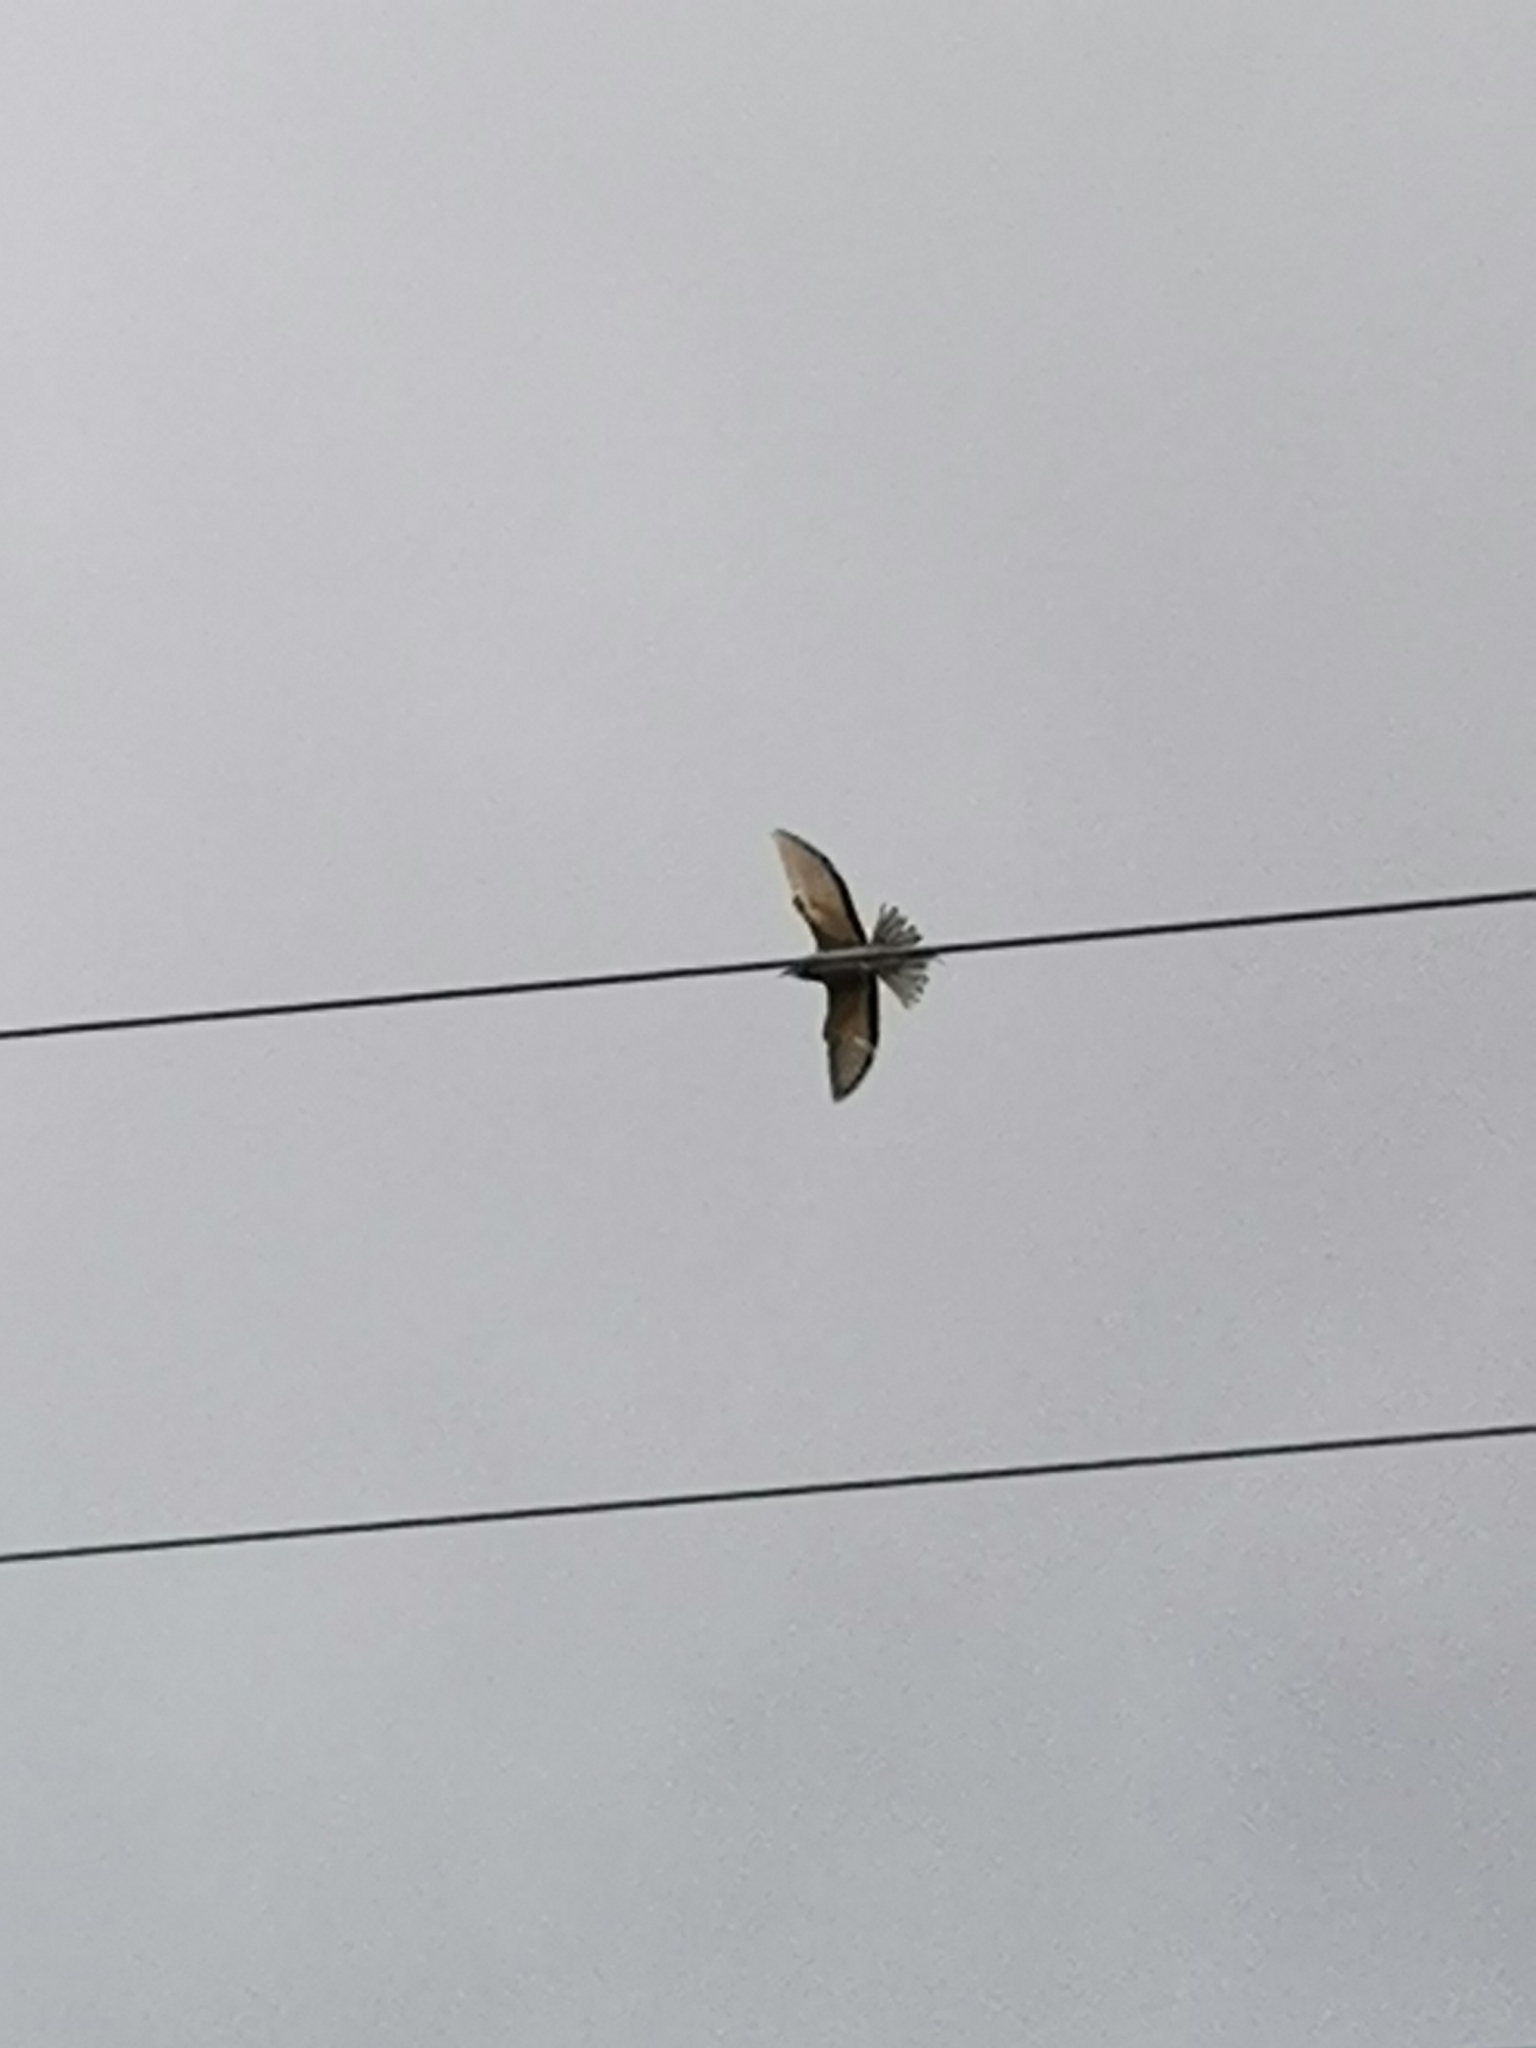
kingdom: Animalia
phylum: Chordata
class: Aves
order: Coraciiformes
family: Meropidae
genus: Merops
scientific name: Merops apiaster
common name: European bee-eater
